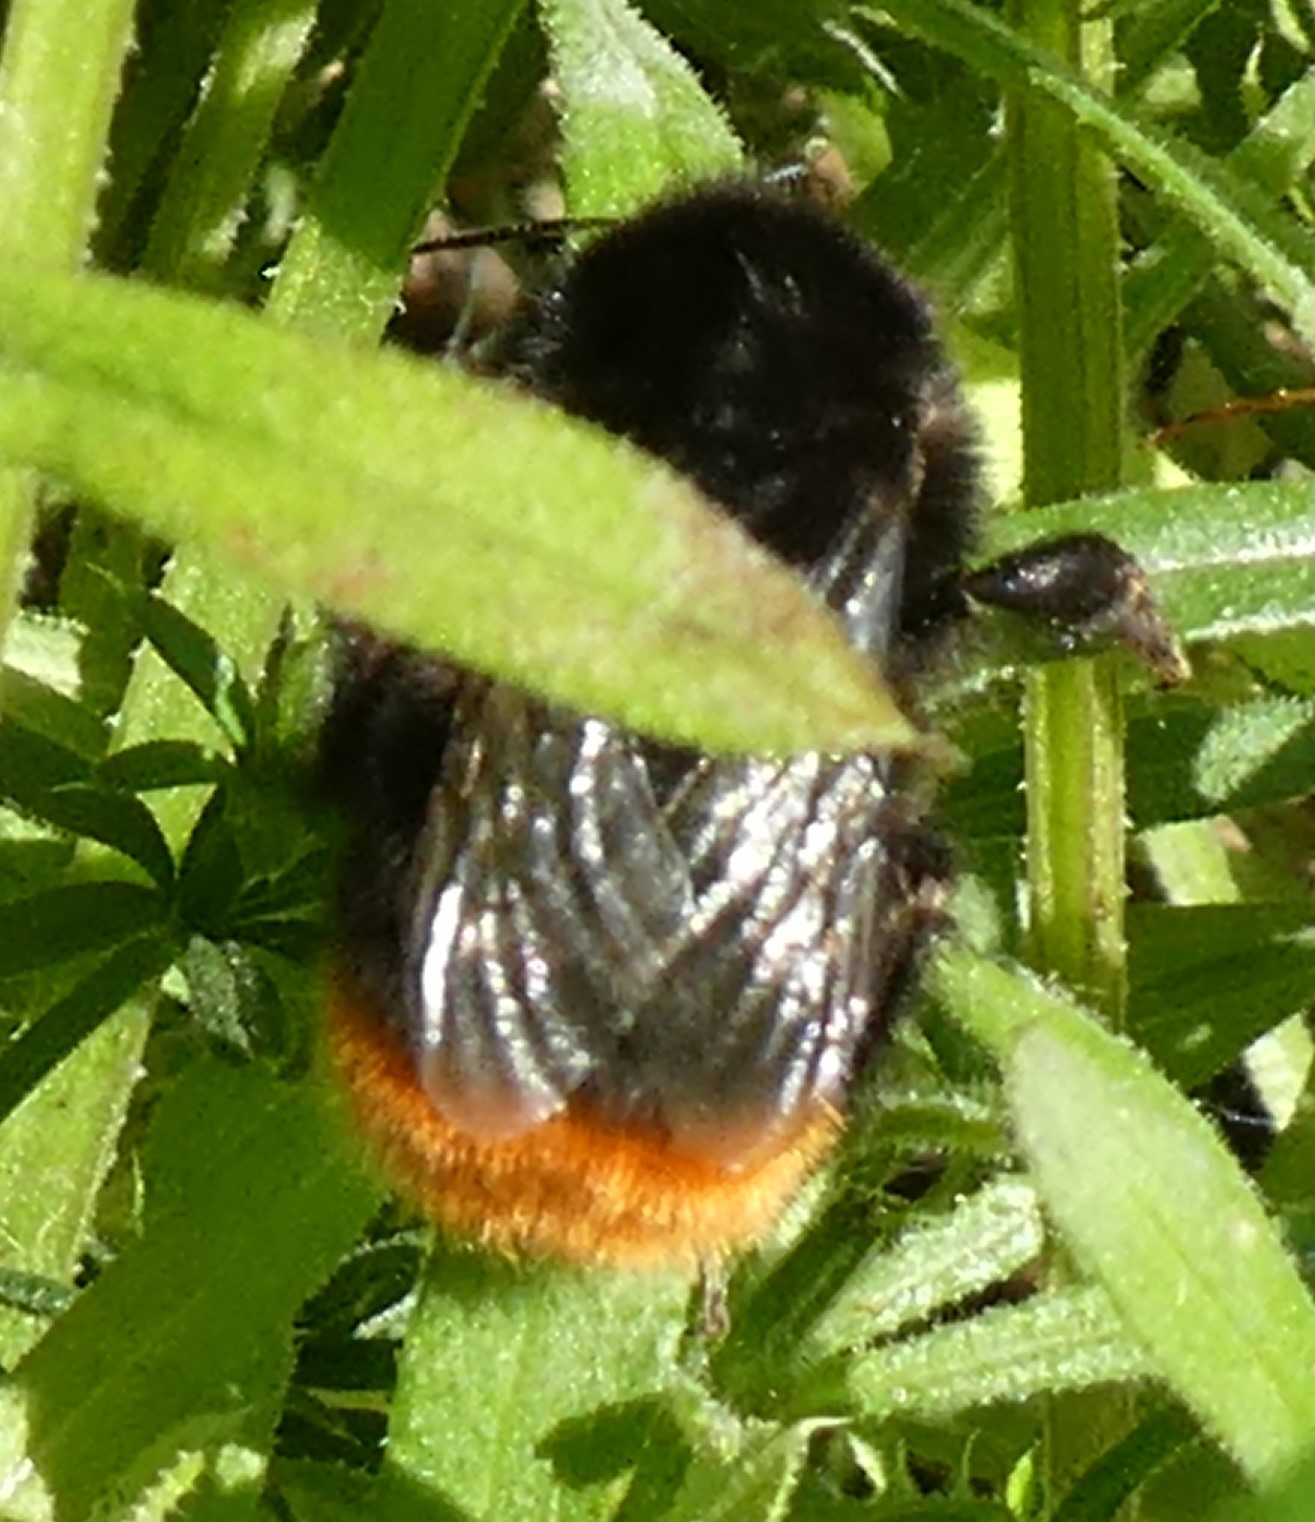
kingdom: Animalia
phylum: Arthropoda
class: Insecta
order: Hymenoptera
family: Apidae
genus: Bombus
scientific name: Bombus lapidarius
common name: Large red-tailed humble-bee
